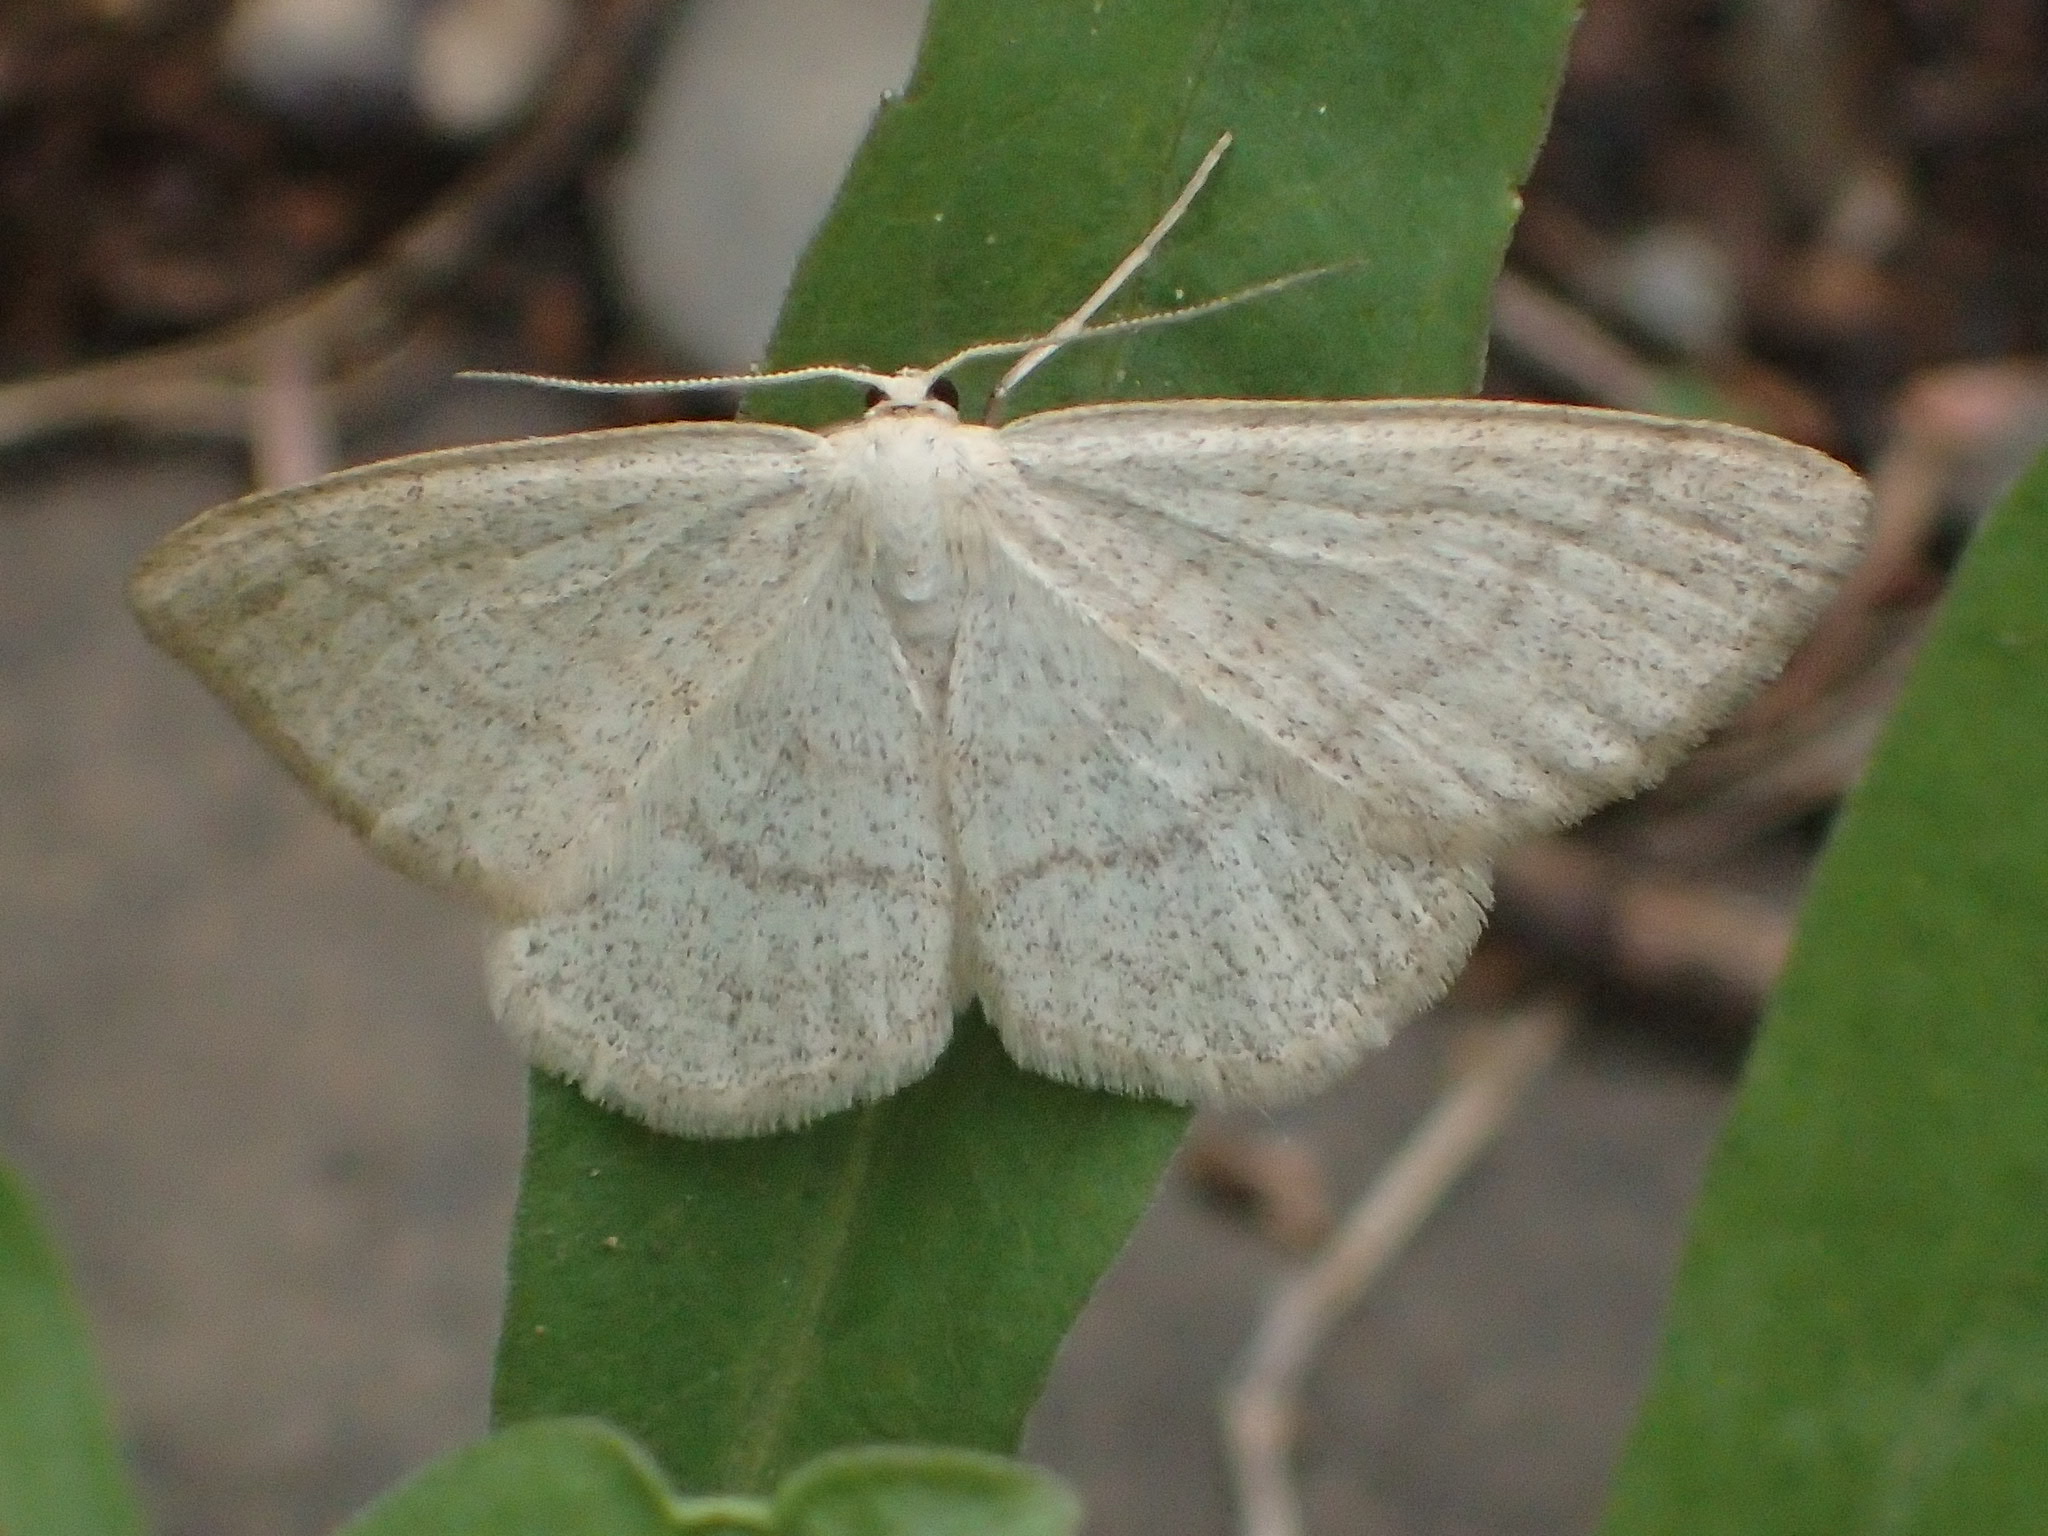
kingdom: Animalia
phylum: Arthropoda
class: Insecta
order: Lepidoptera
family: Geometridae
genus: Scopula
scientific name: Scopula frigidaria
